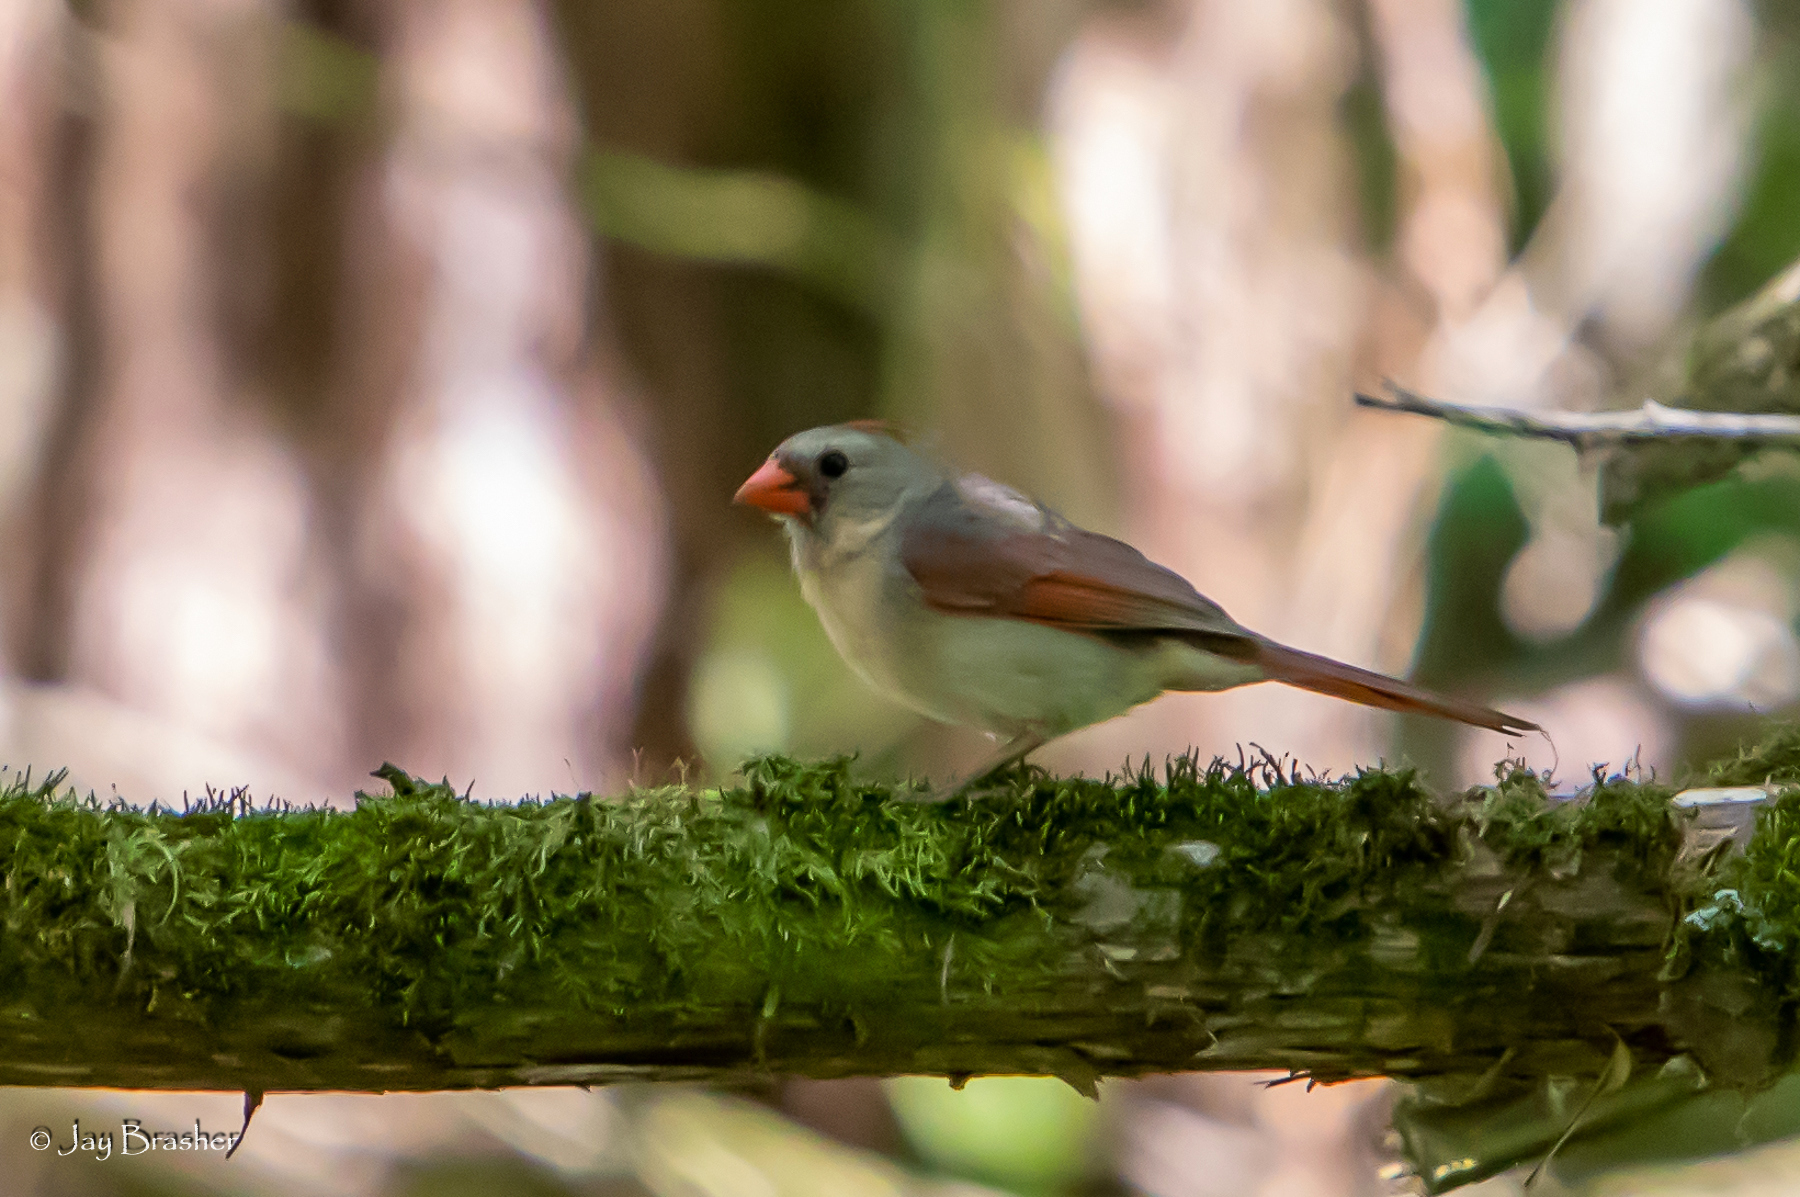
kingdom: Animalia
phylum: Chordata
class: Aves
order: Passeriformes
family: Cardinalidae
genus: Cardinalis
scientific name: Cardinalis cardinalis
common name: Northern cardinal
